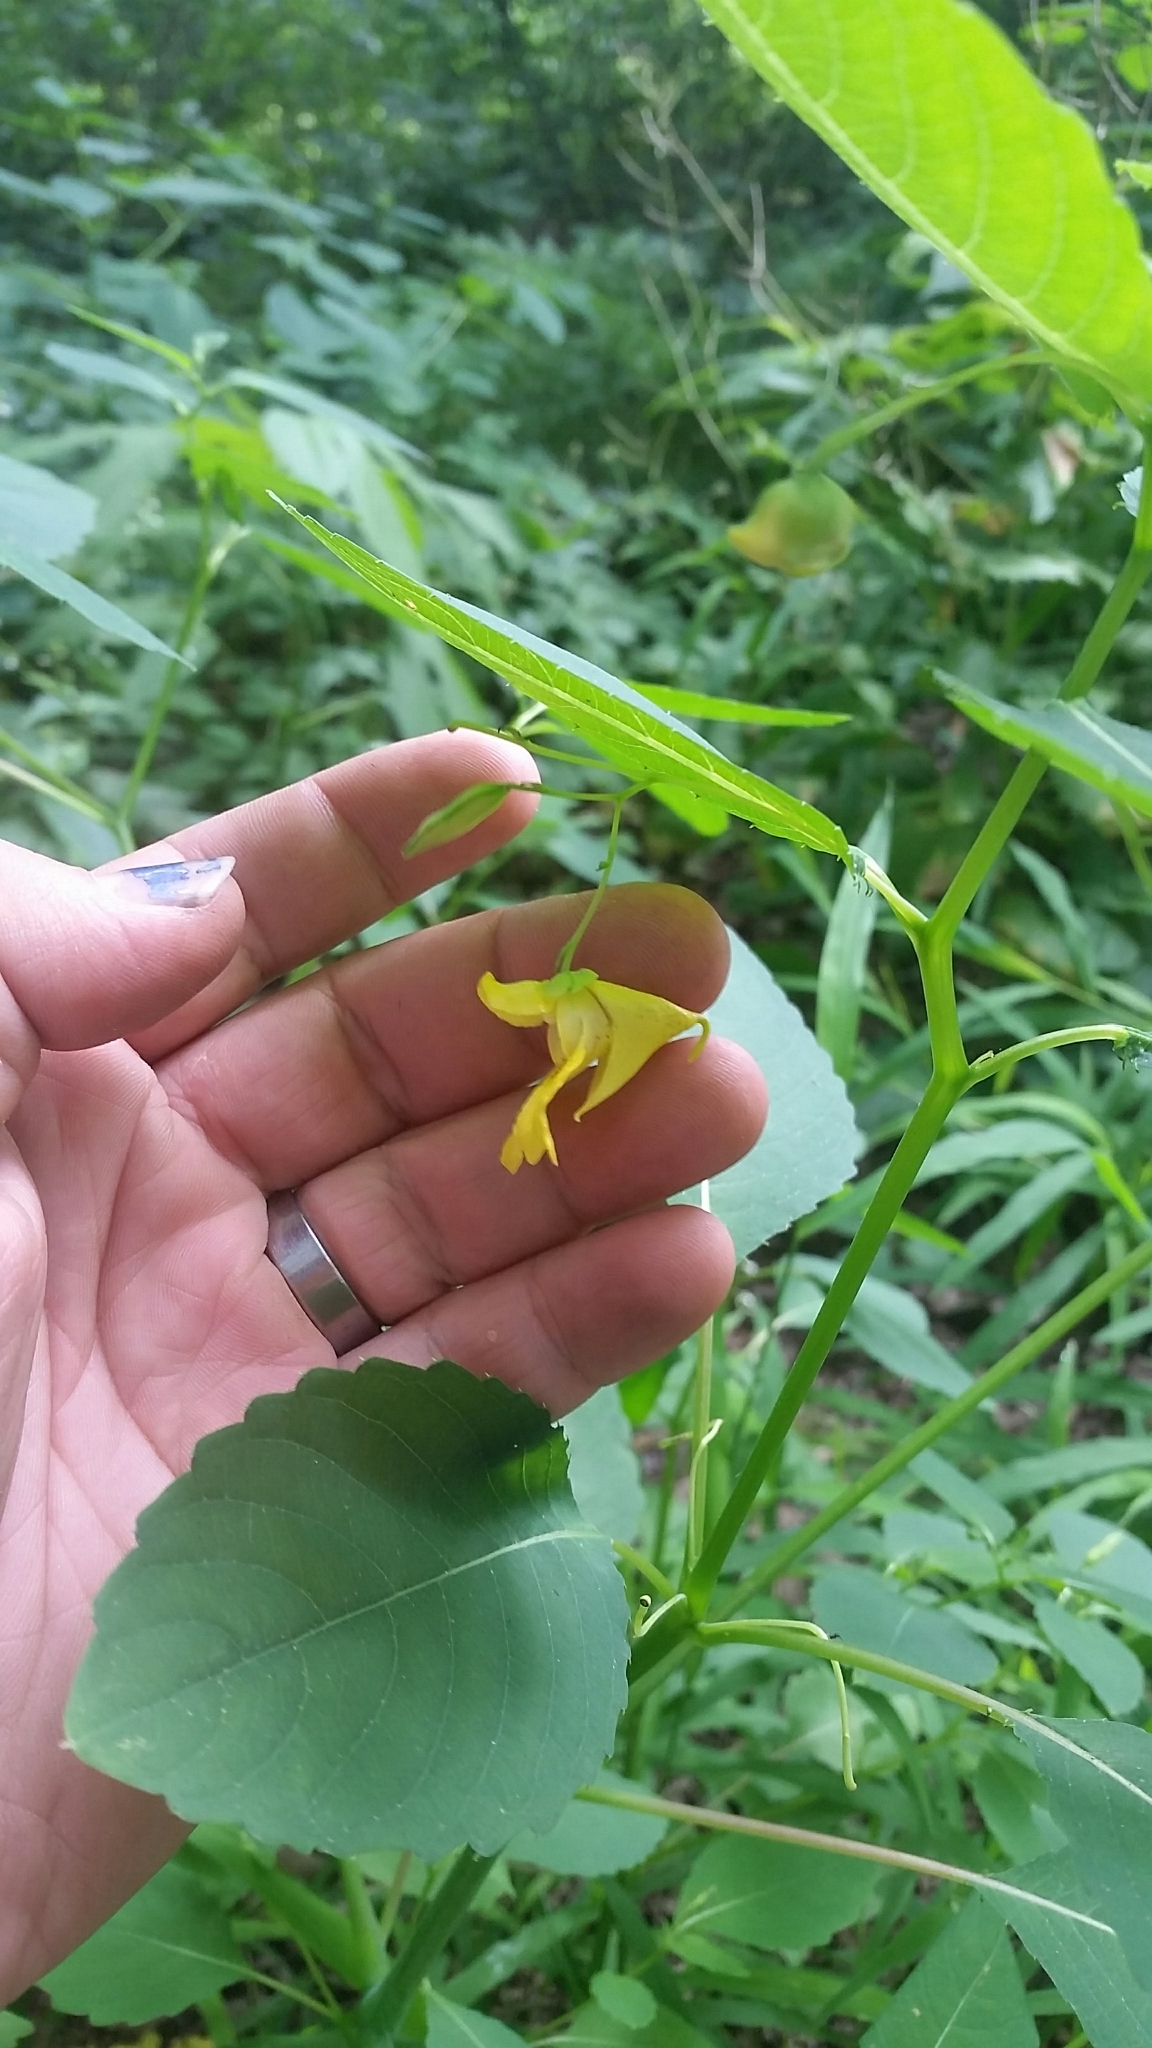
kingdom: Plantae
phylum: Tracheophyta
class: Magnoliopsida
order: Ericales
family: Balsaminaceae
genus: Impatiens
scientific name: Impatiens pallida
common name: Pale snapweed
